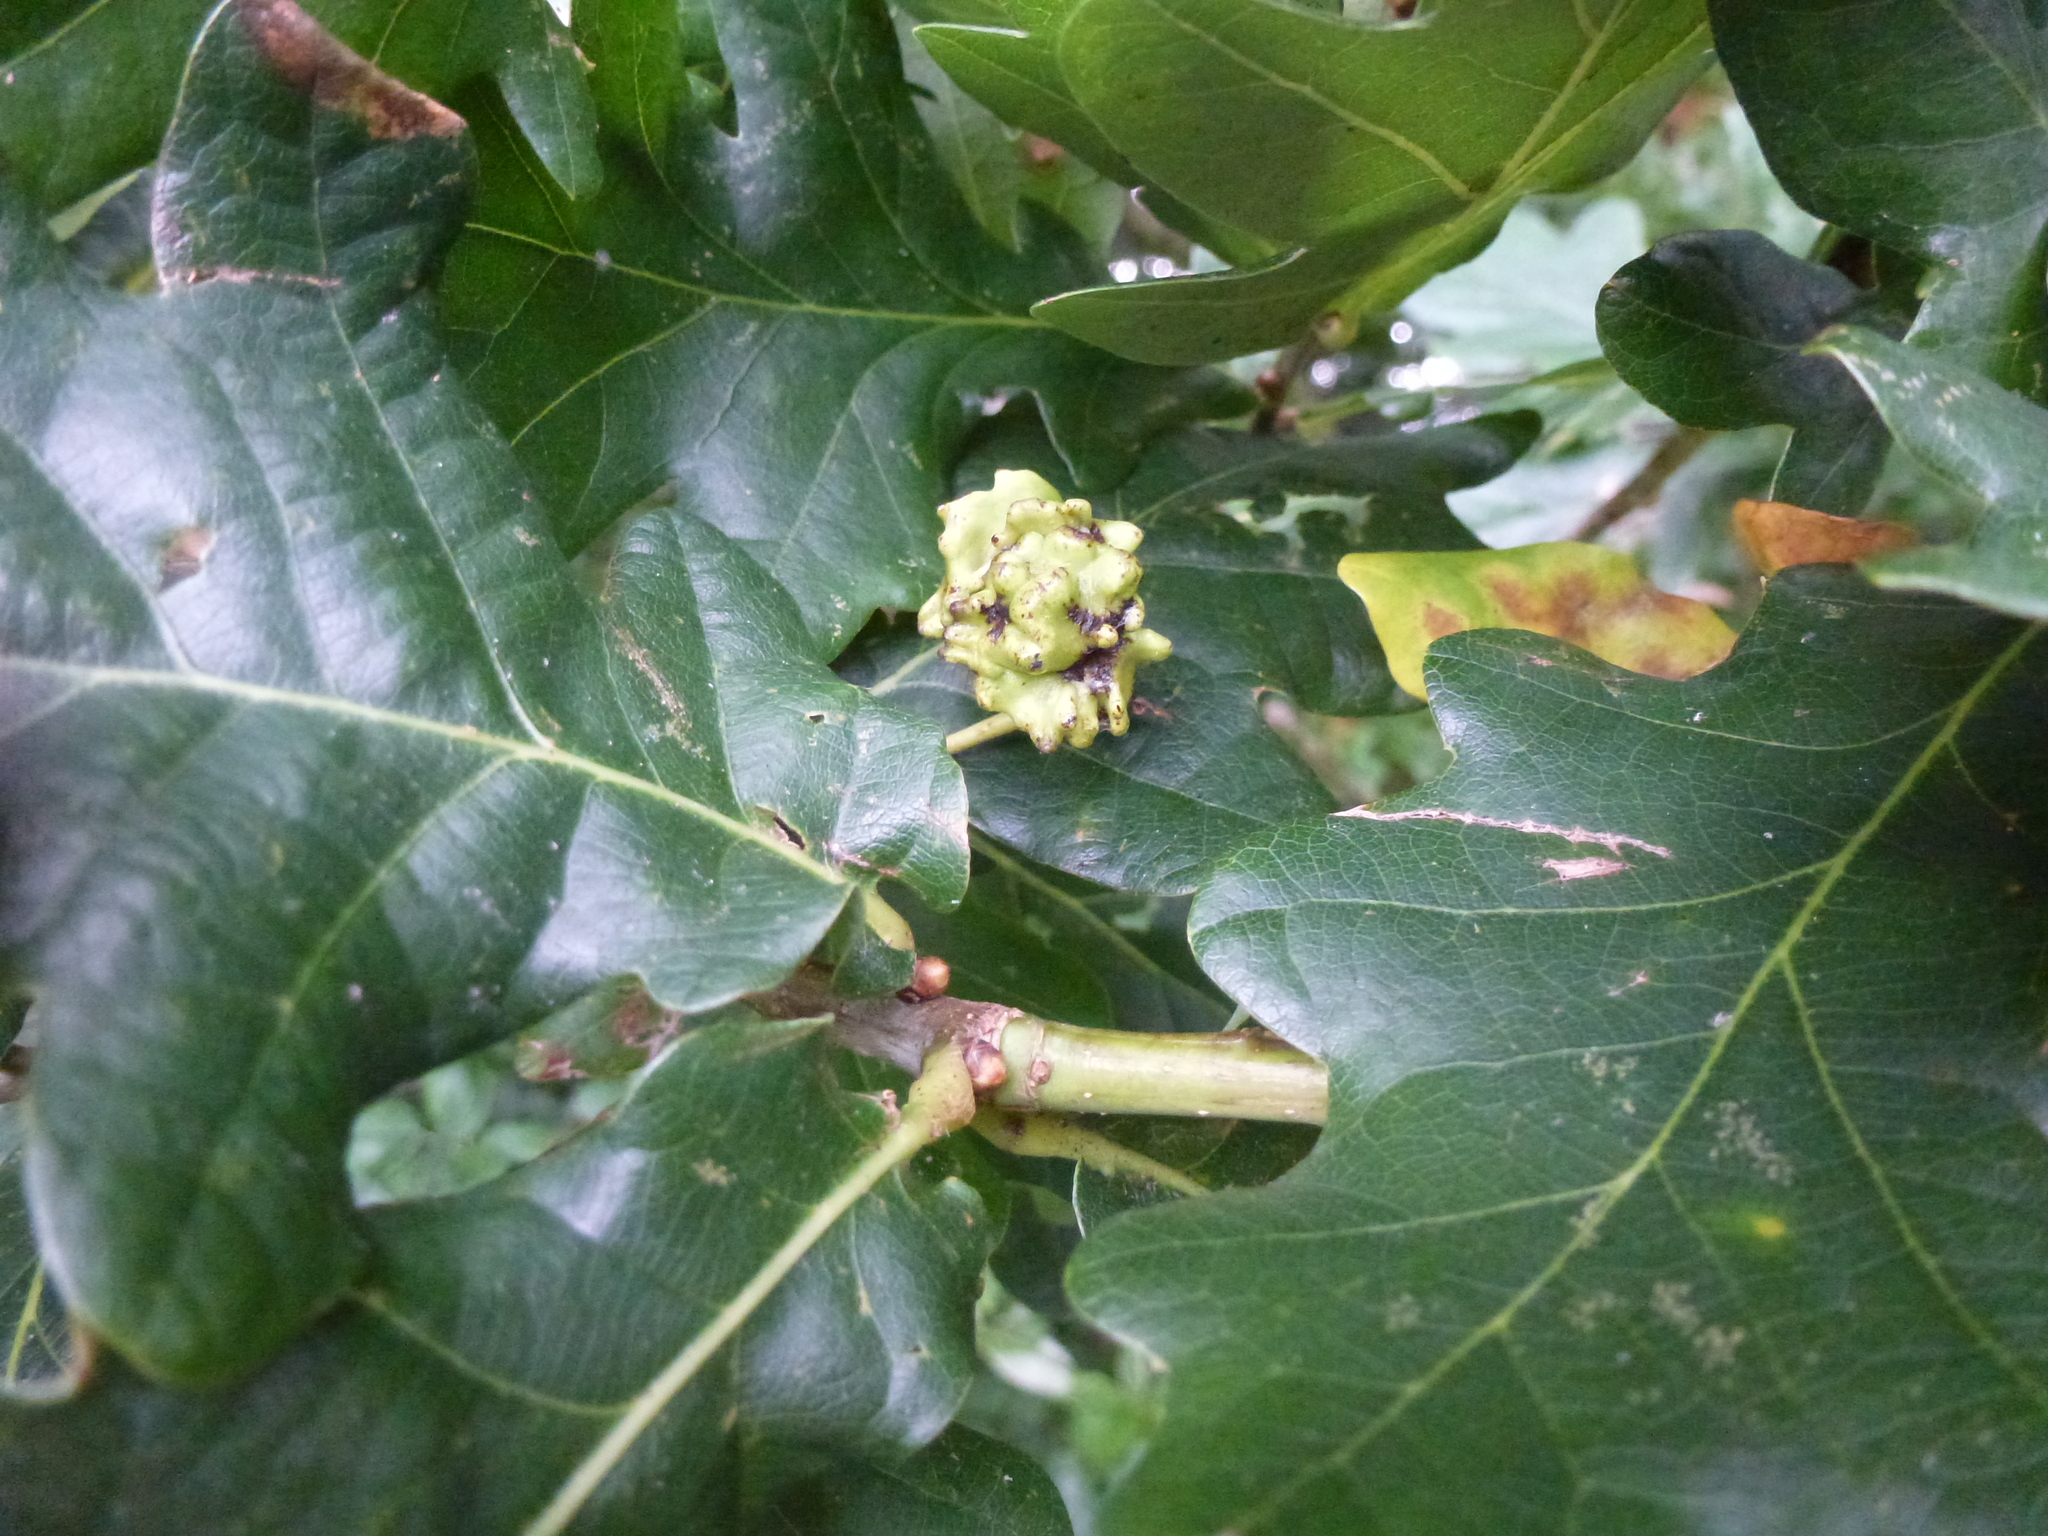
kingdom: Animalia
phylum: Arthropoda
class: Insecta
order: Hymenoptera
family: Cynipidae
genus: Andricus
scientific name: Andricus quercuscalicis
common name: Knopper gall
